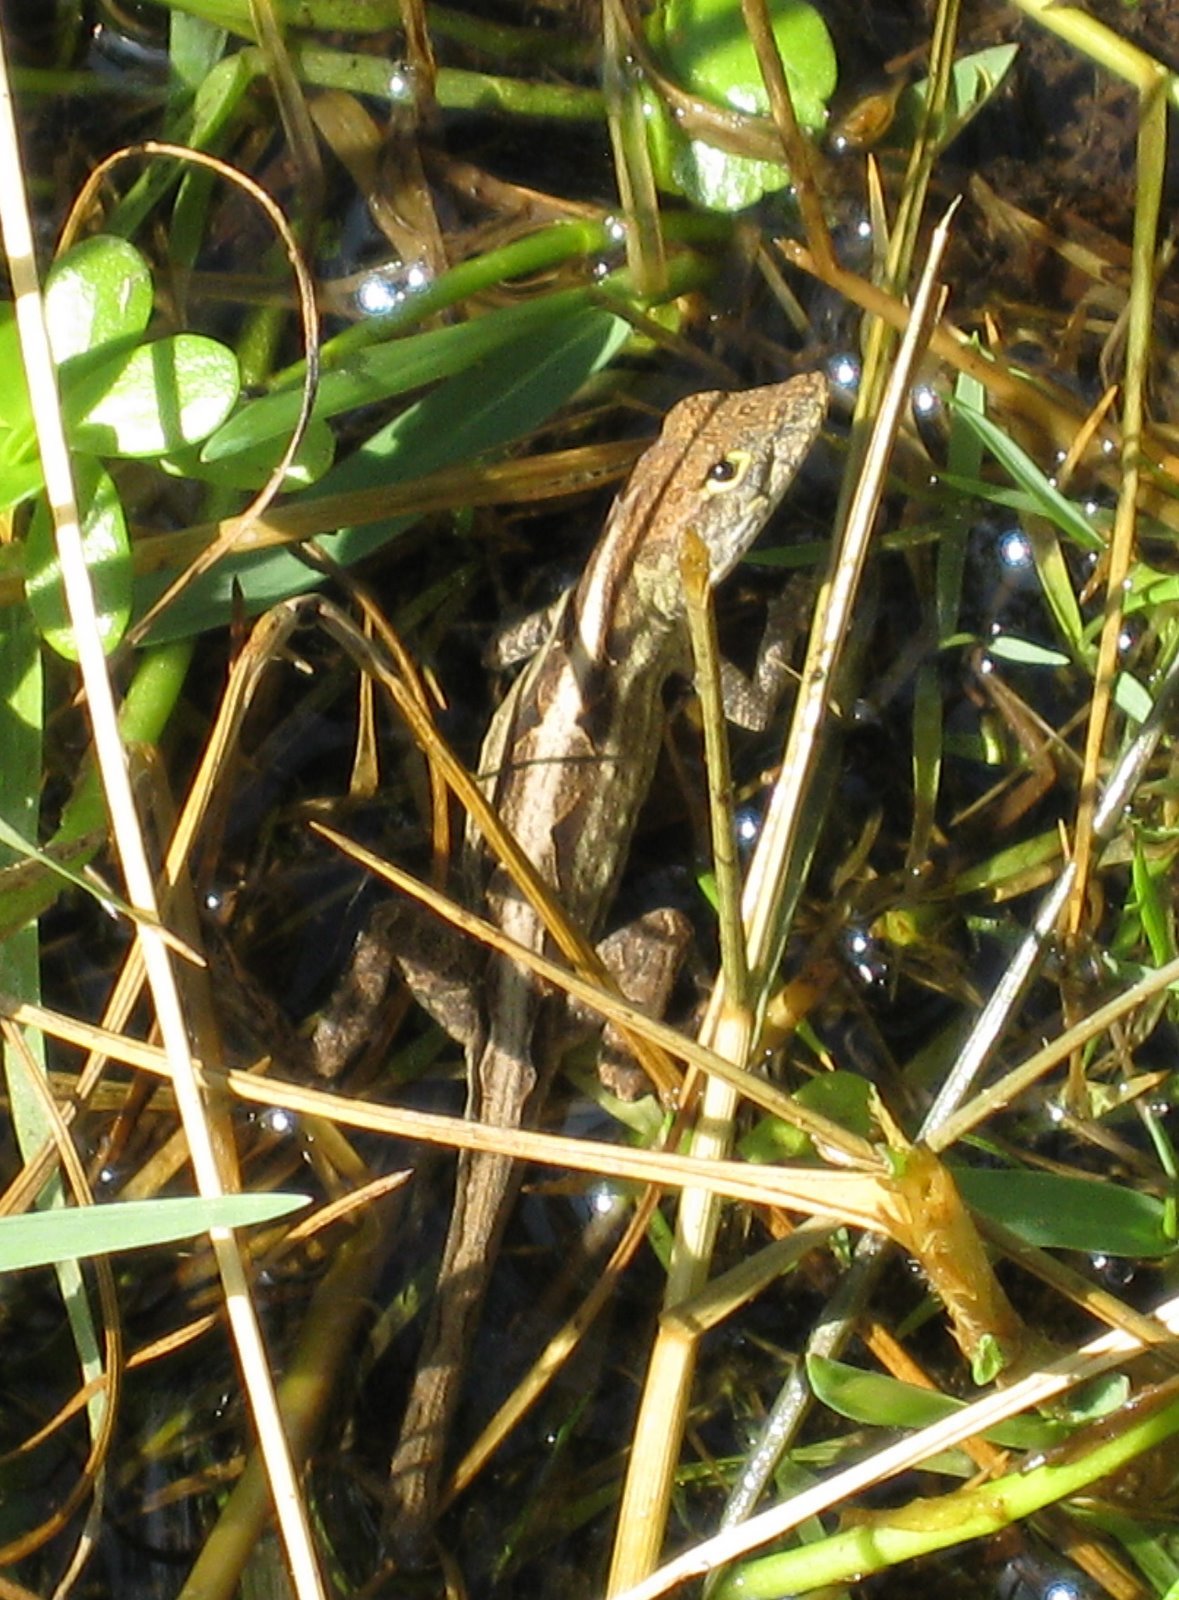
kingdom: Animalia
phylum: Chordata
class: Squamata
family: Dactyloidae
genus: Anolis
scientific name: Anolis sagrei
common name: Brown anole
